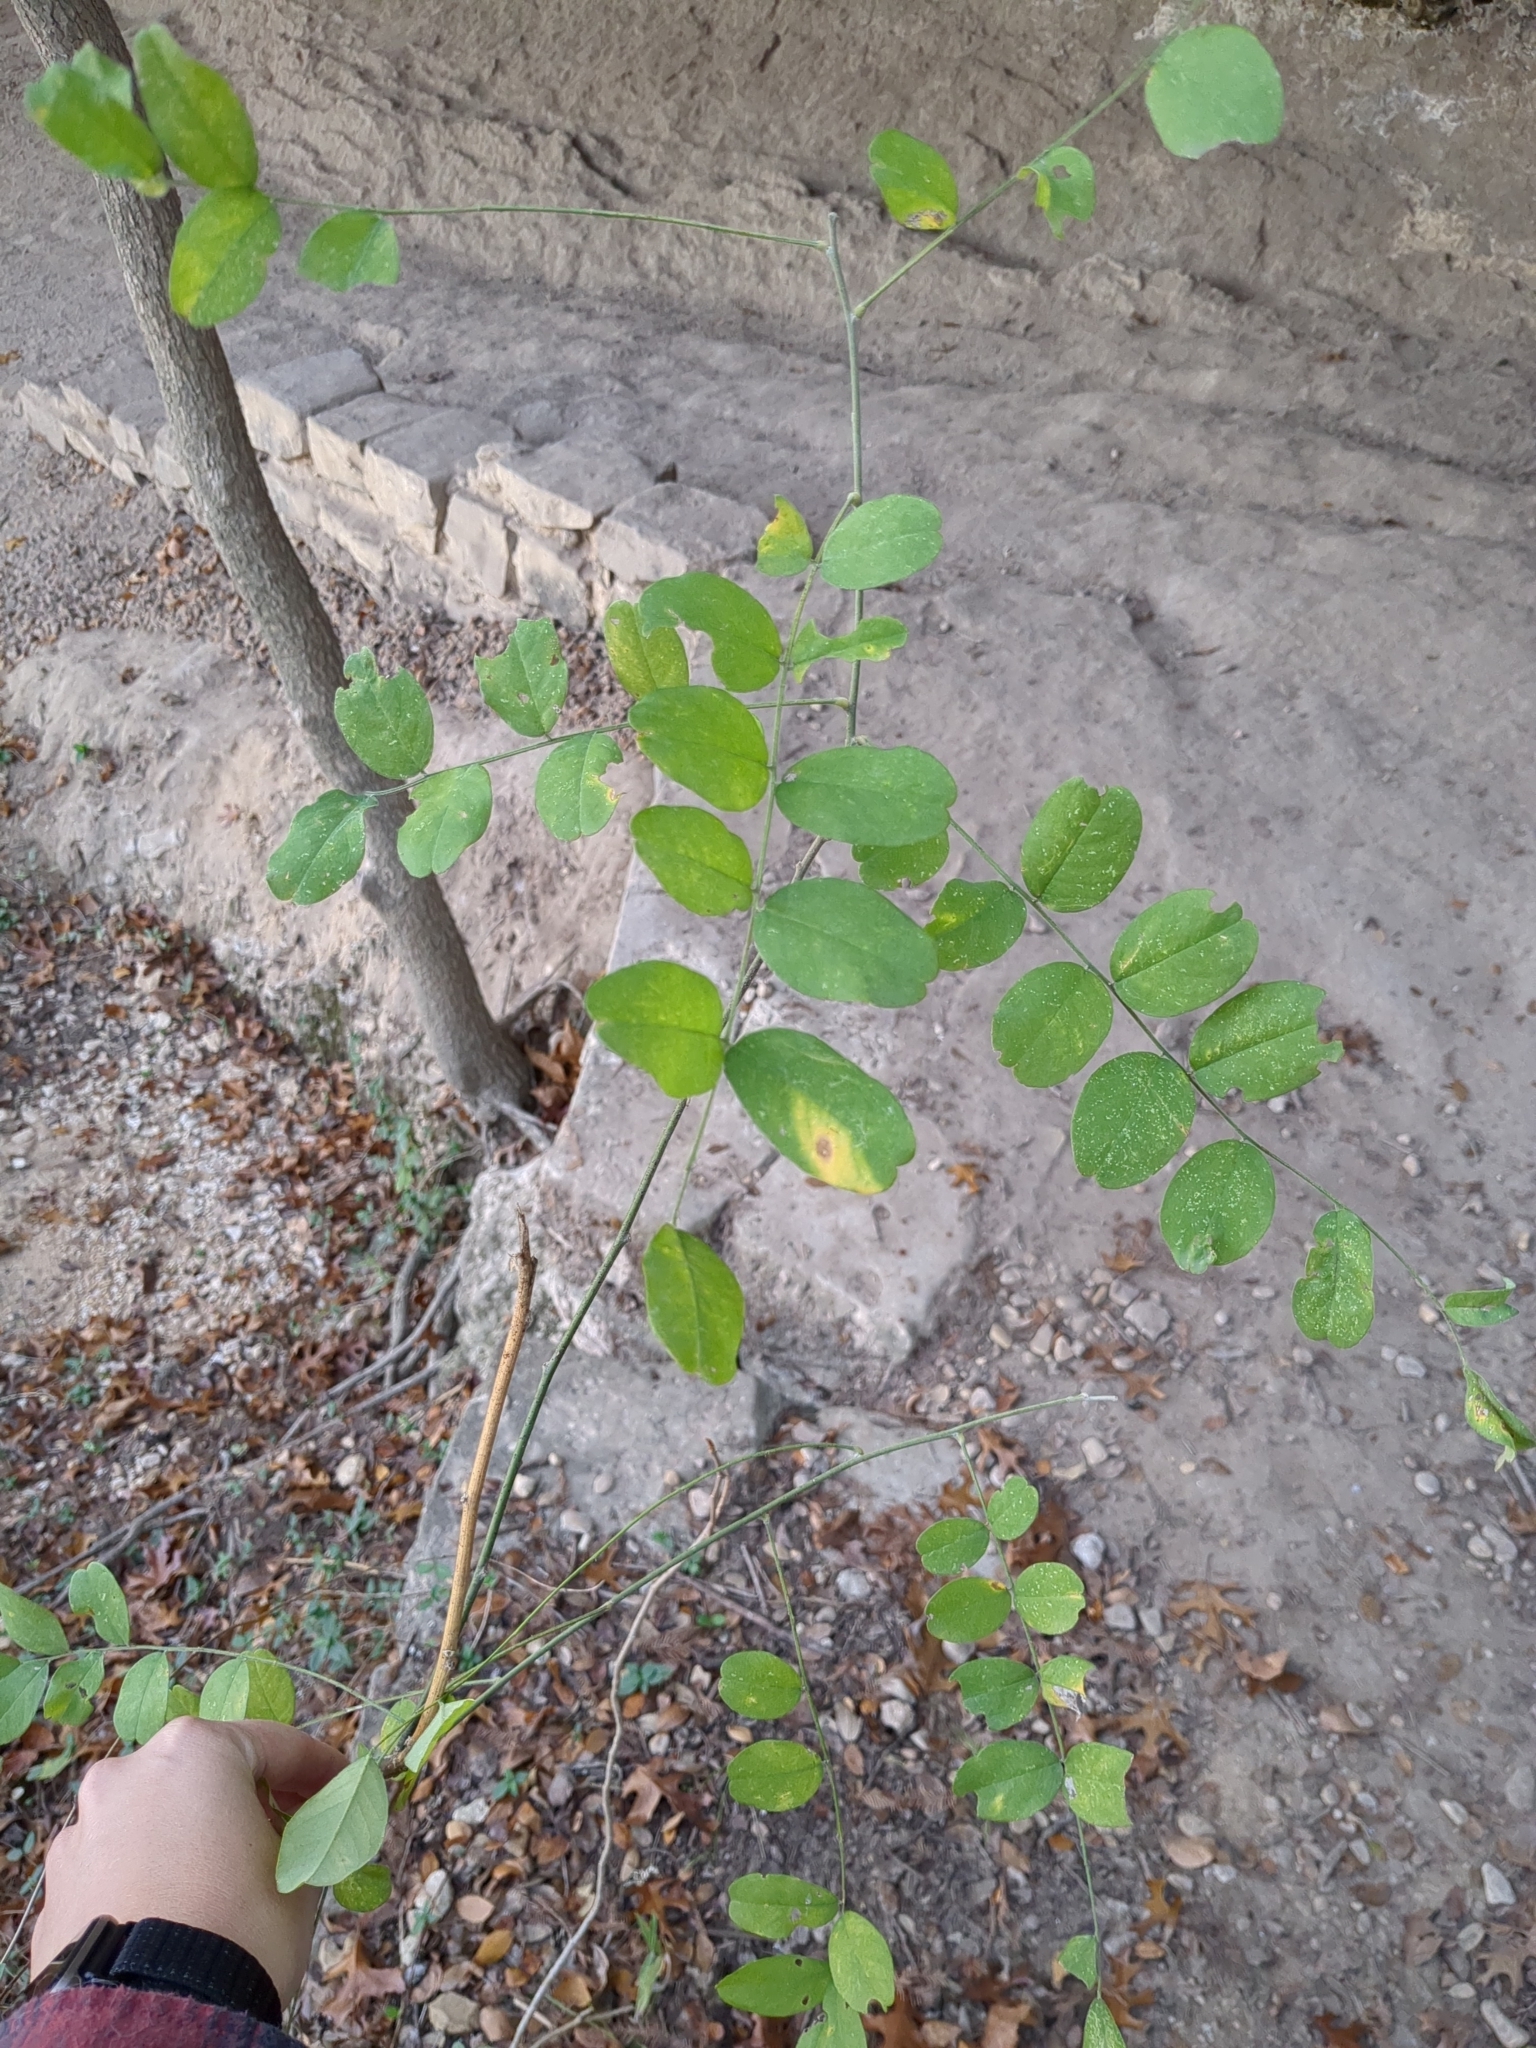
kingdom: Plantae
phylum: Tracheophyta
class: Magnoliopsida
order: Fabales
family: Fabaceae
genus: Styphnolobium
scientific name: Styphnolobium affine
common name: Texas sophora
